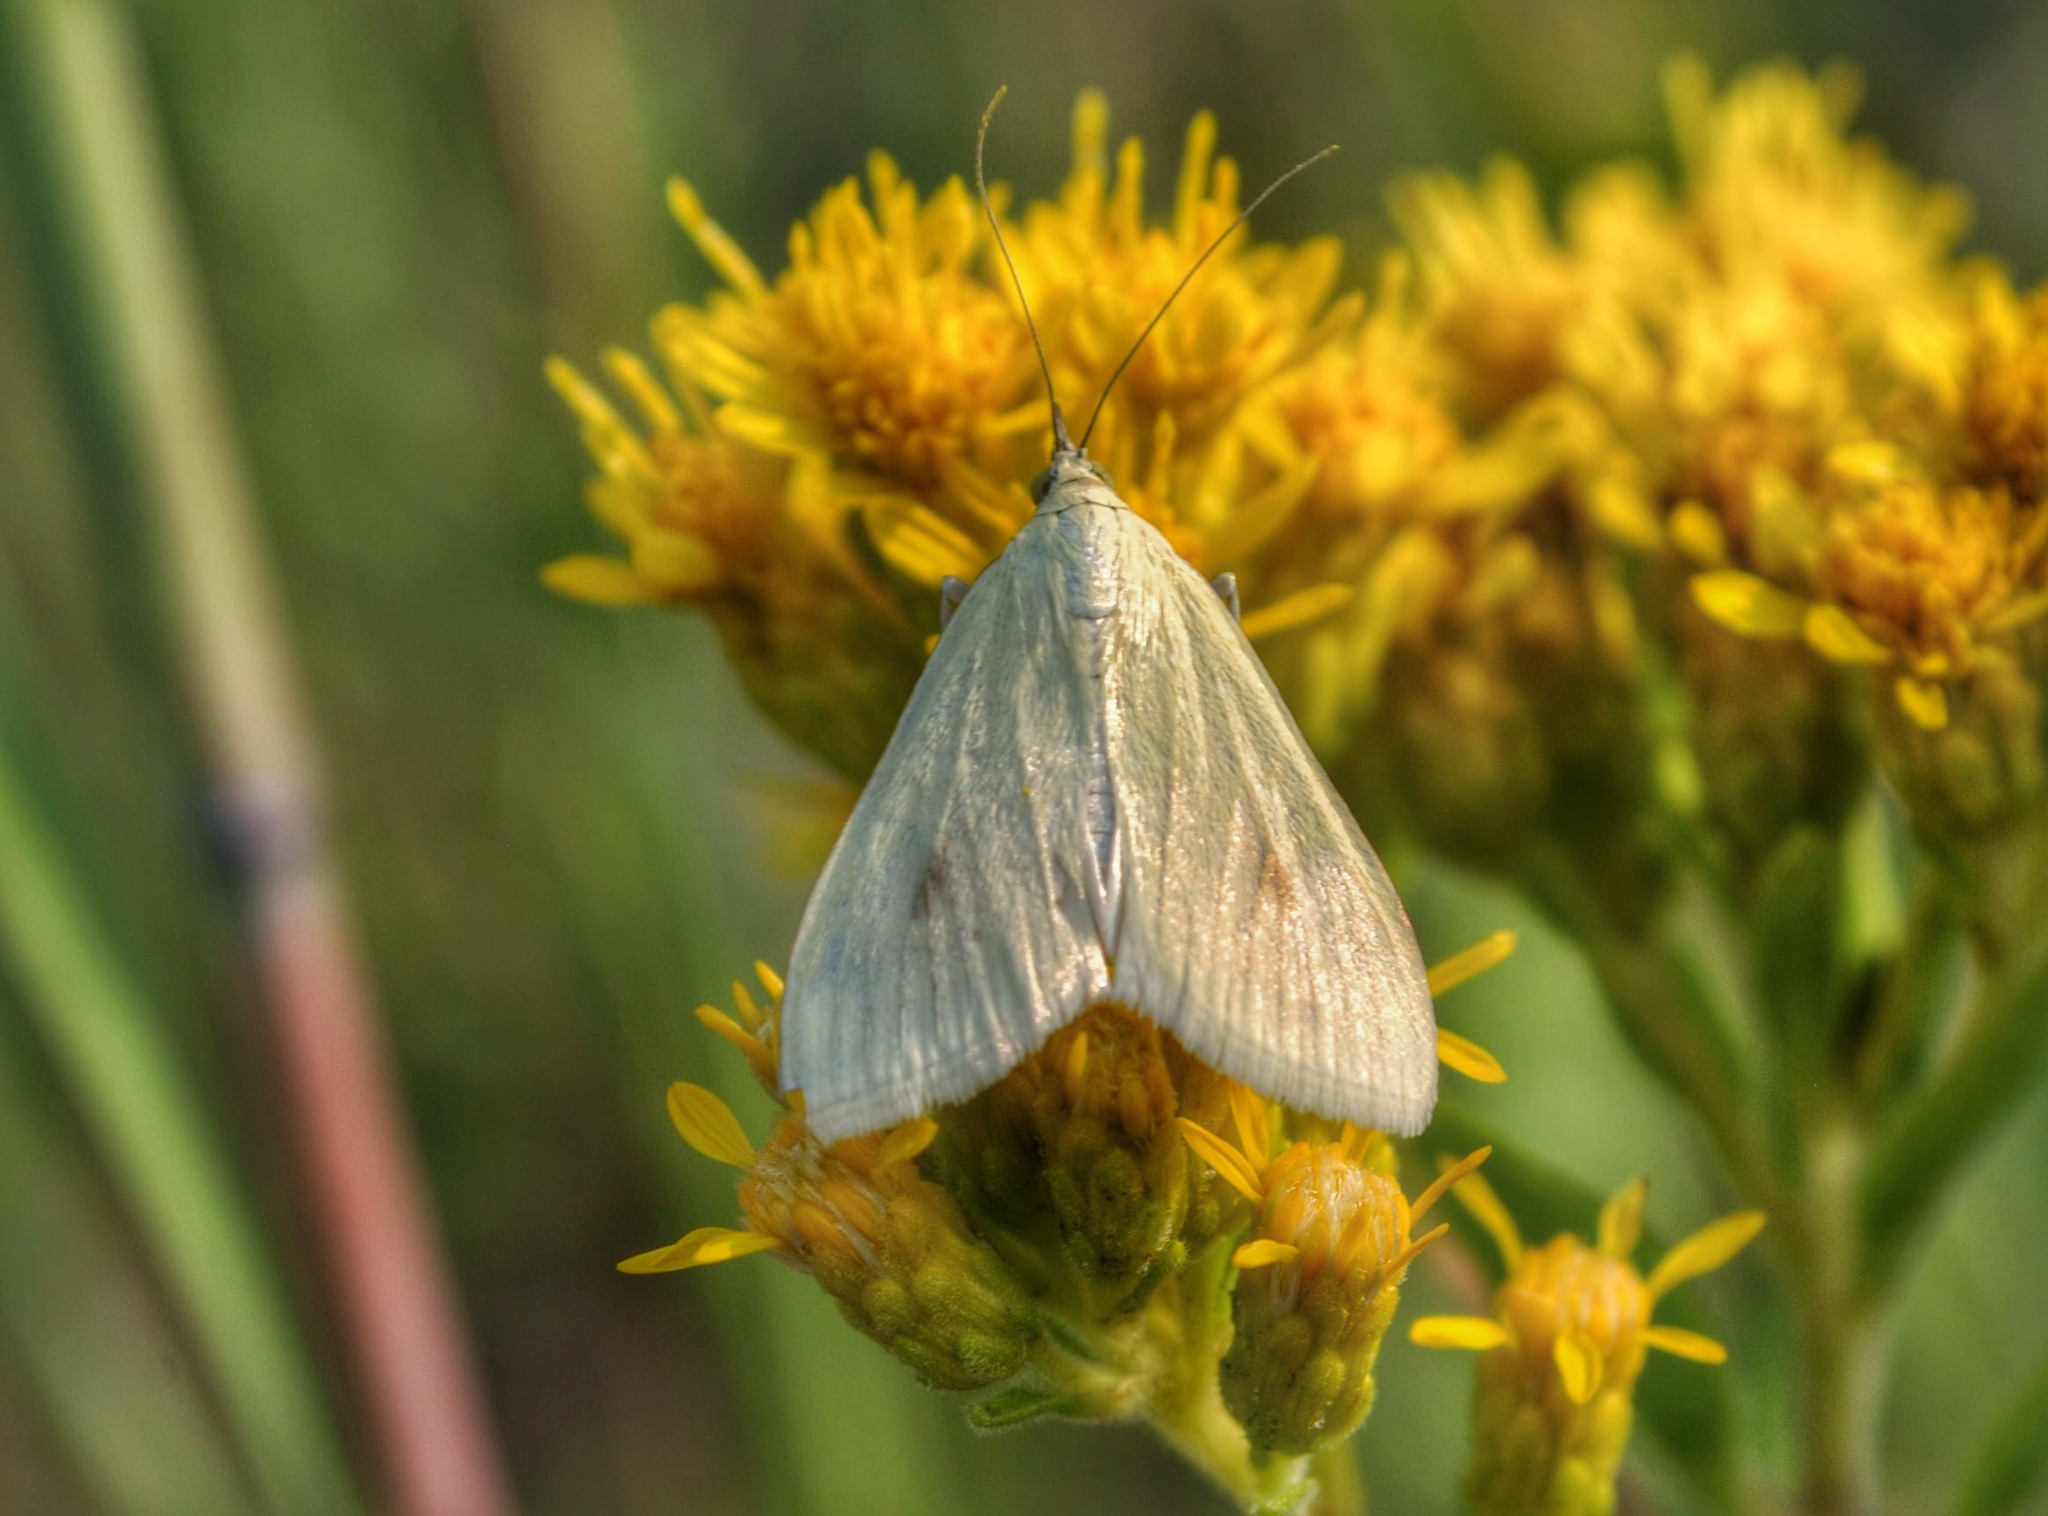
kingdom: Animalia
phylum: Arthropoda
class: Insecta
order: Lepidoptera
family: Crambidae
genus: Sitochroa
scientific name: Sitochroa palealis
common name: Greenish-yellow sitochroa moth
